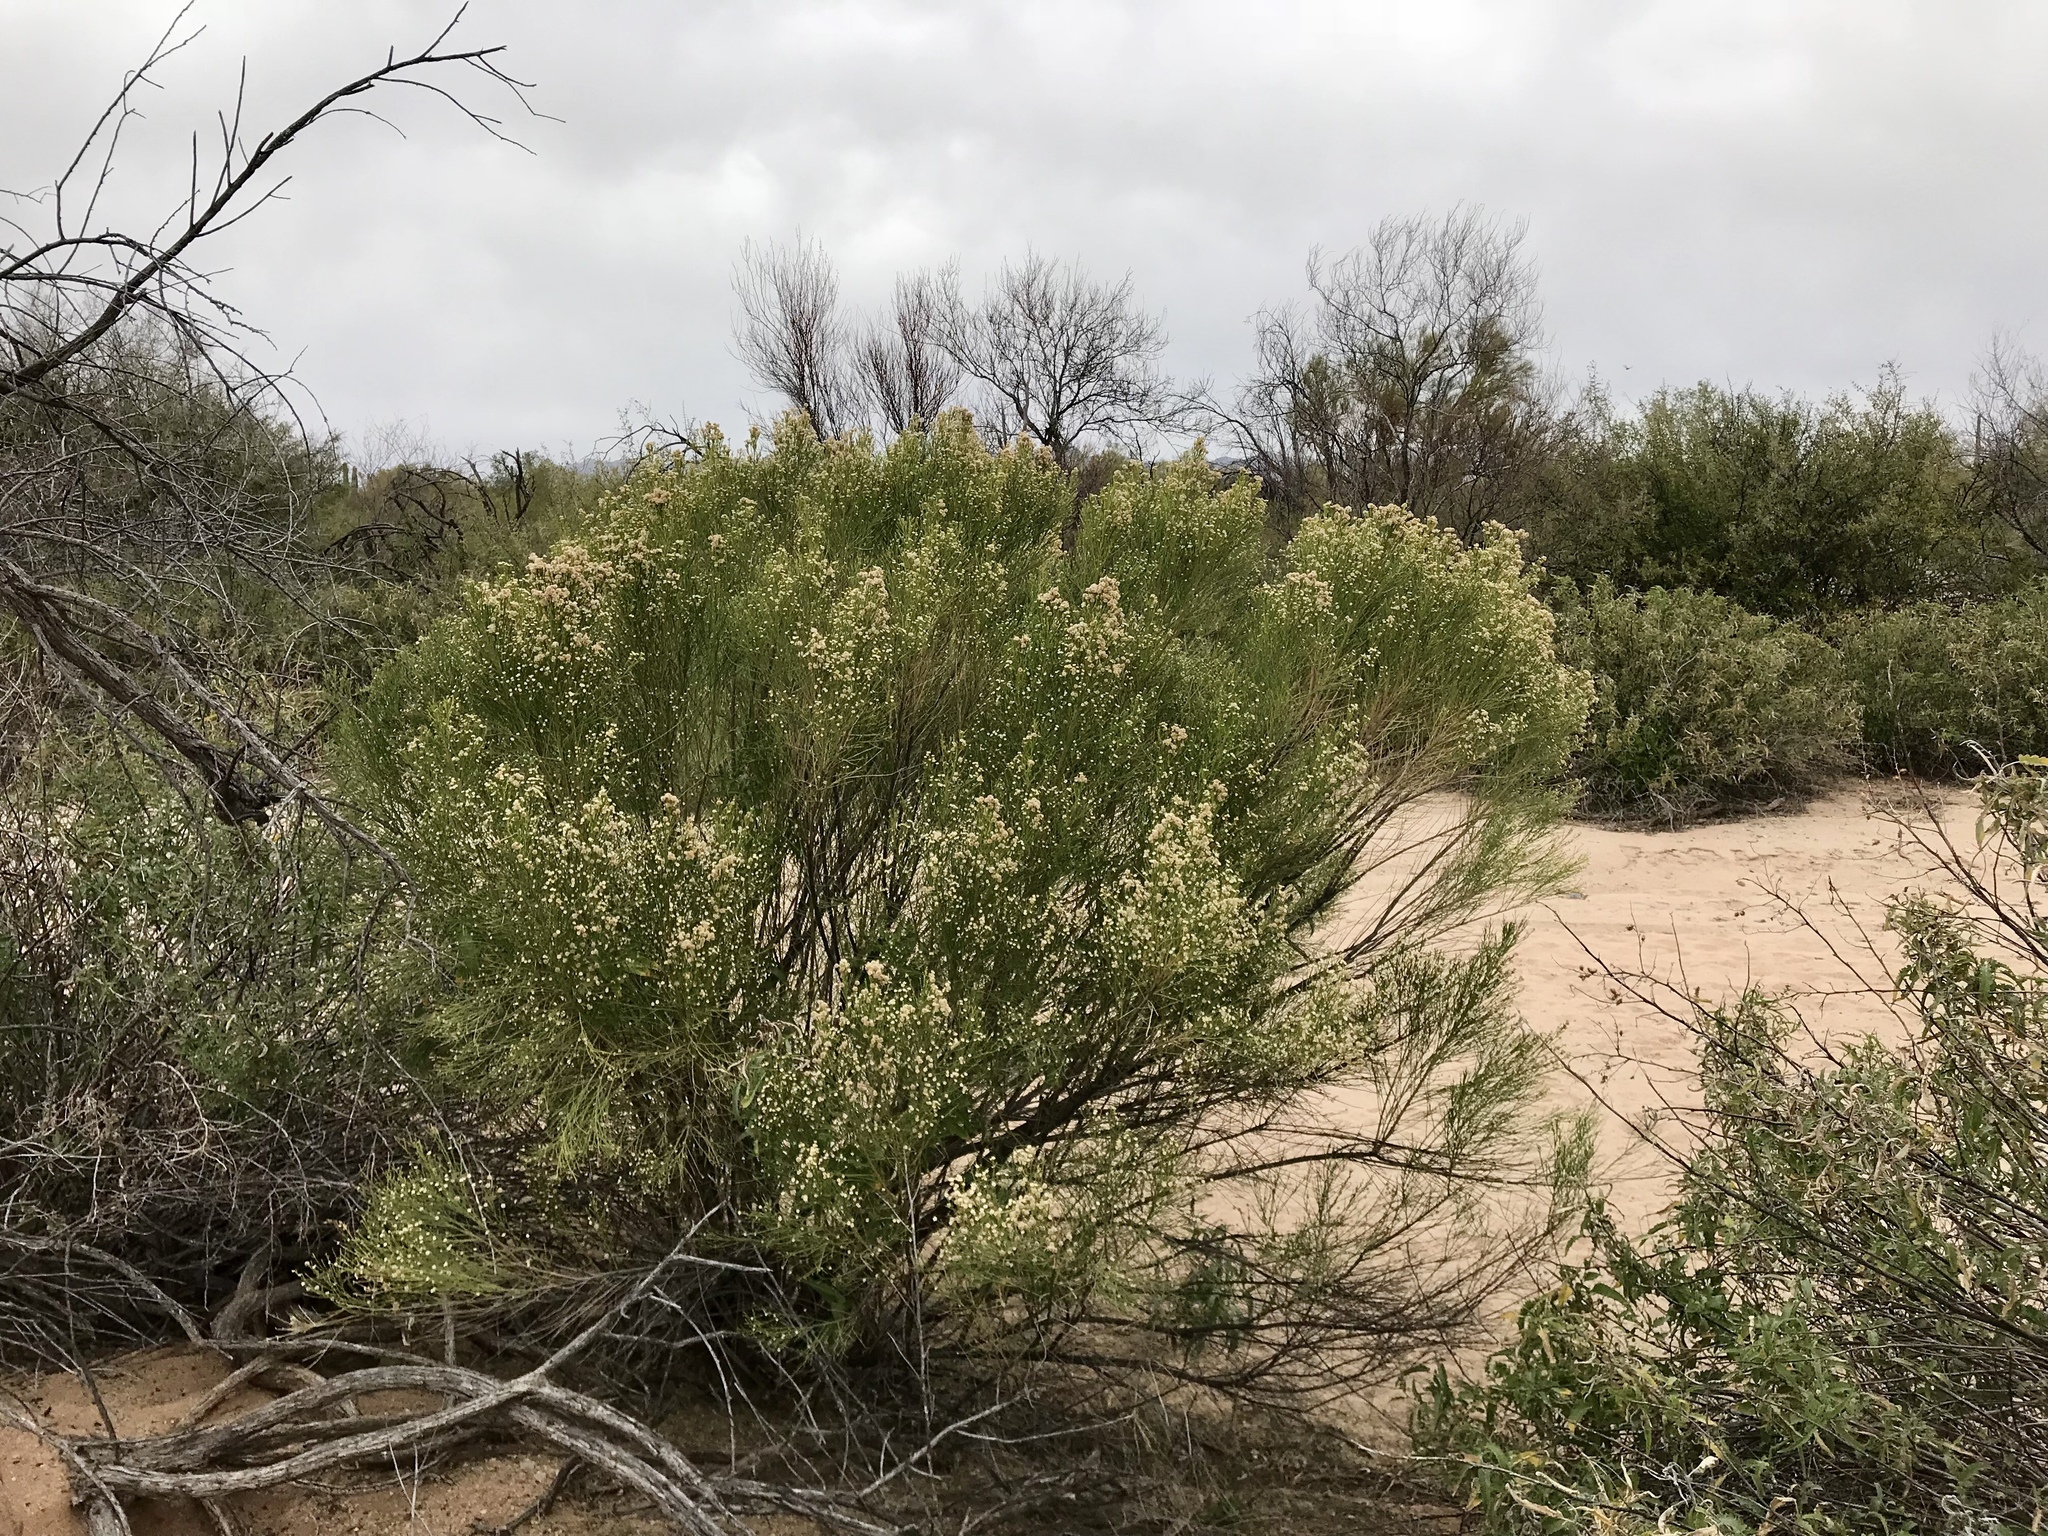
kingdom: Plantae
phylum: Tracheophyta
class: Magnoliopsida
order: Asterales
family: Asteraceae
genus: Baccharis
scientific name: Baccharis sarothroides
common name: Desert-broom
